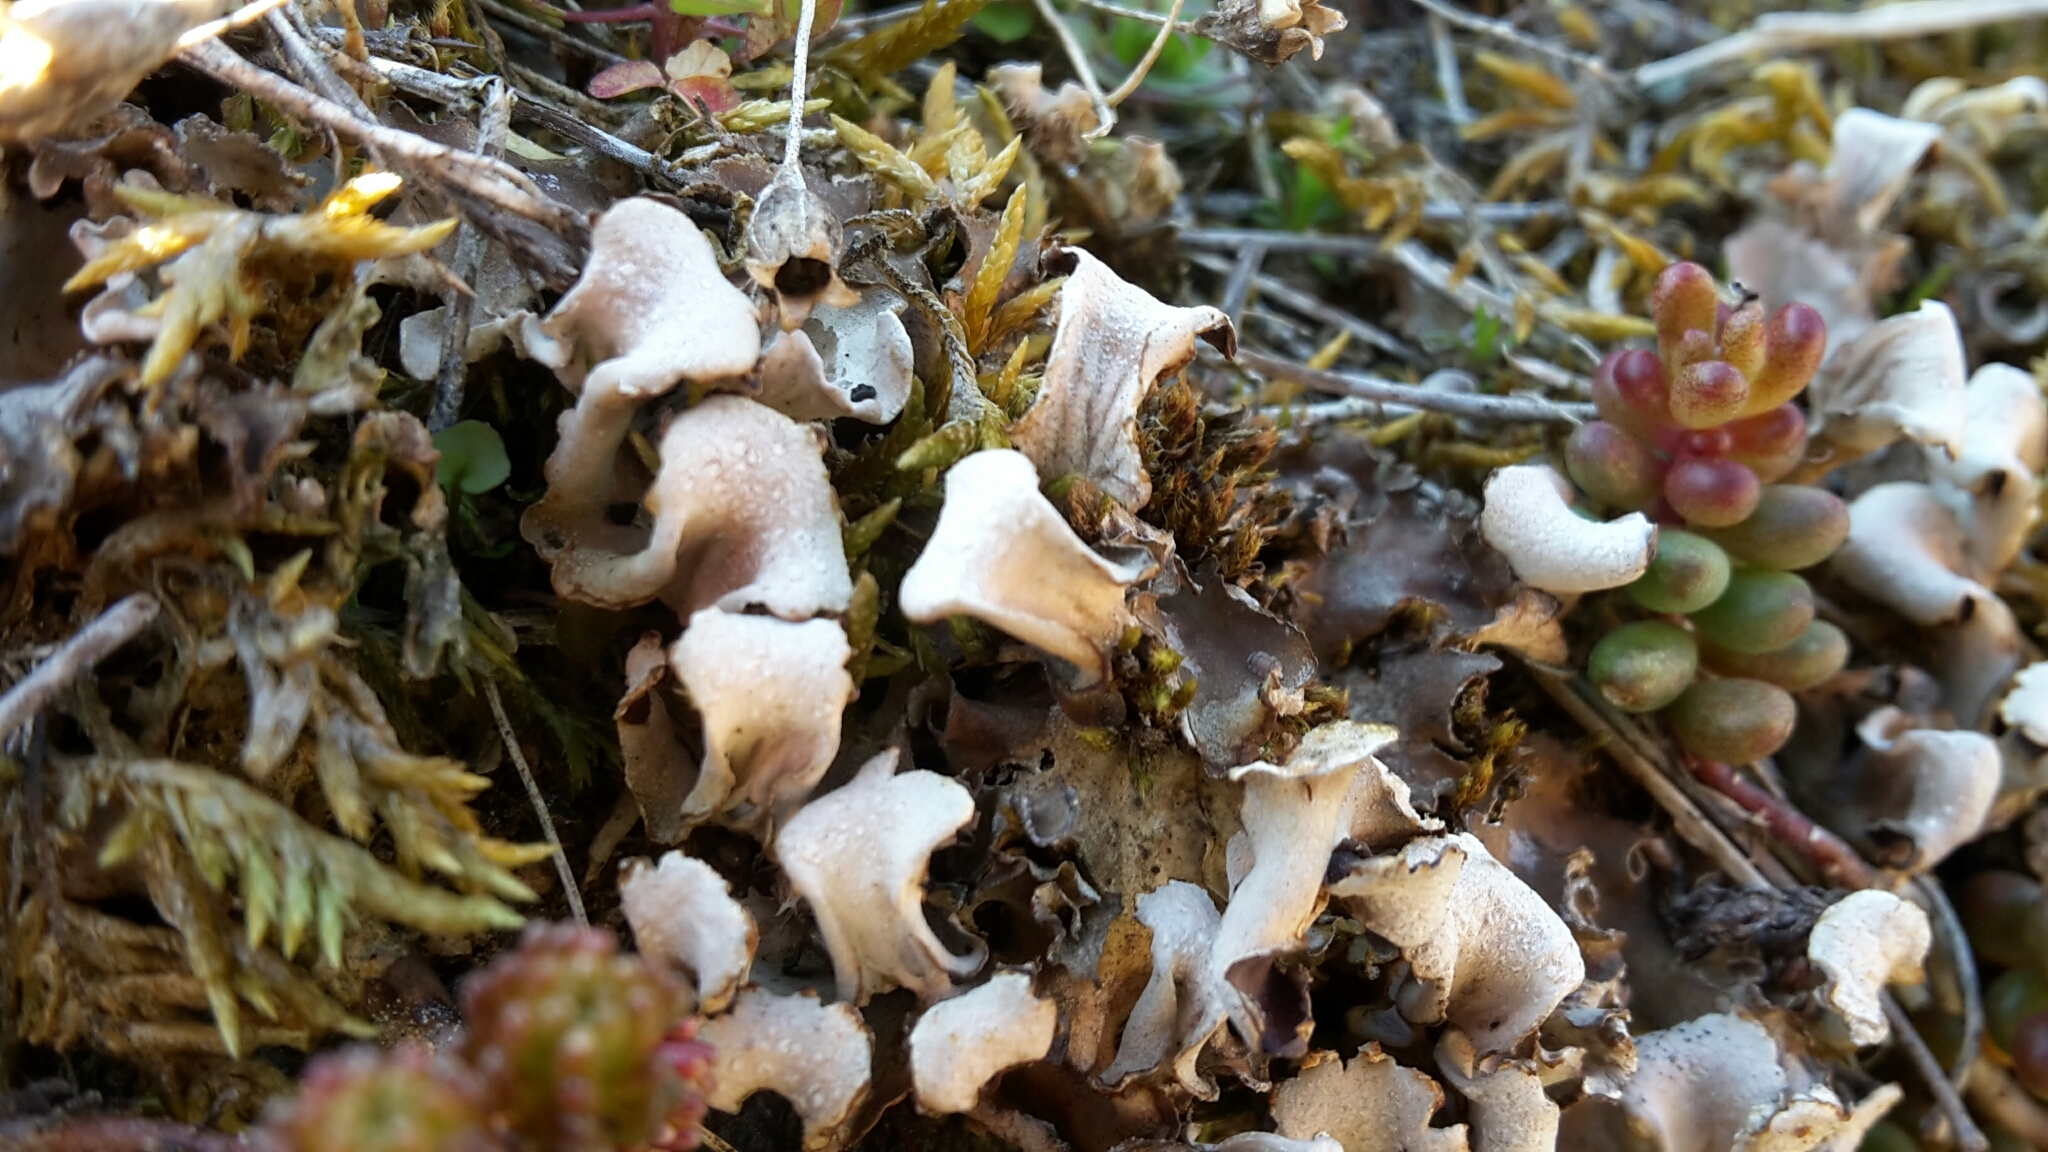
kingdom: Fungi
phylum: Ascomycota
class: Lecanoromycetes
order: Peltigerales
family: Peltigeraceae
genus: Peltigera
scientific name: Peltigera
